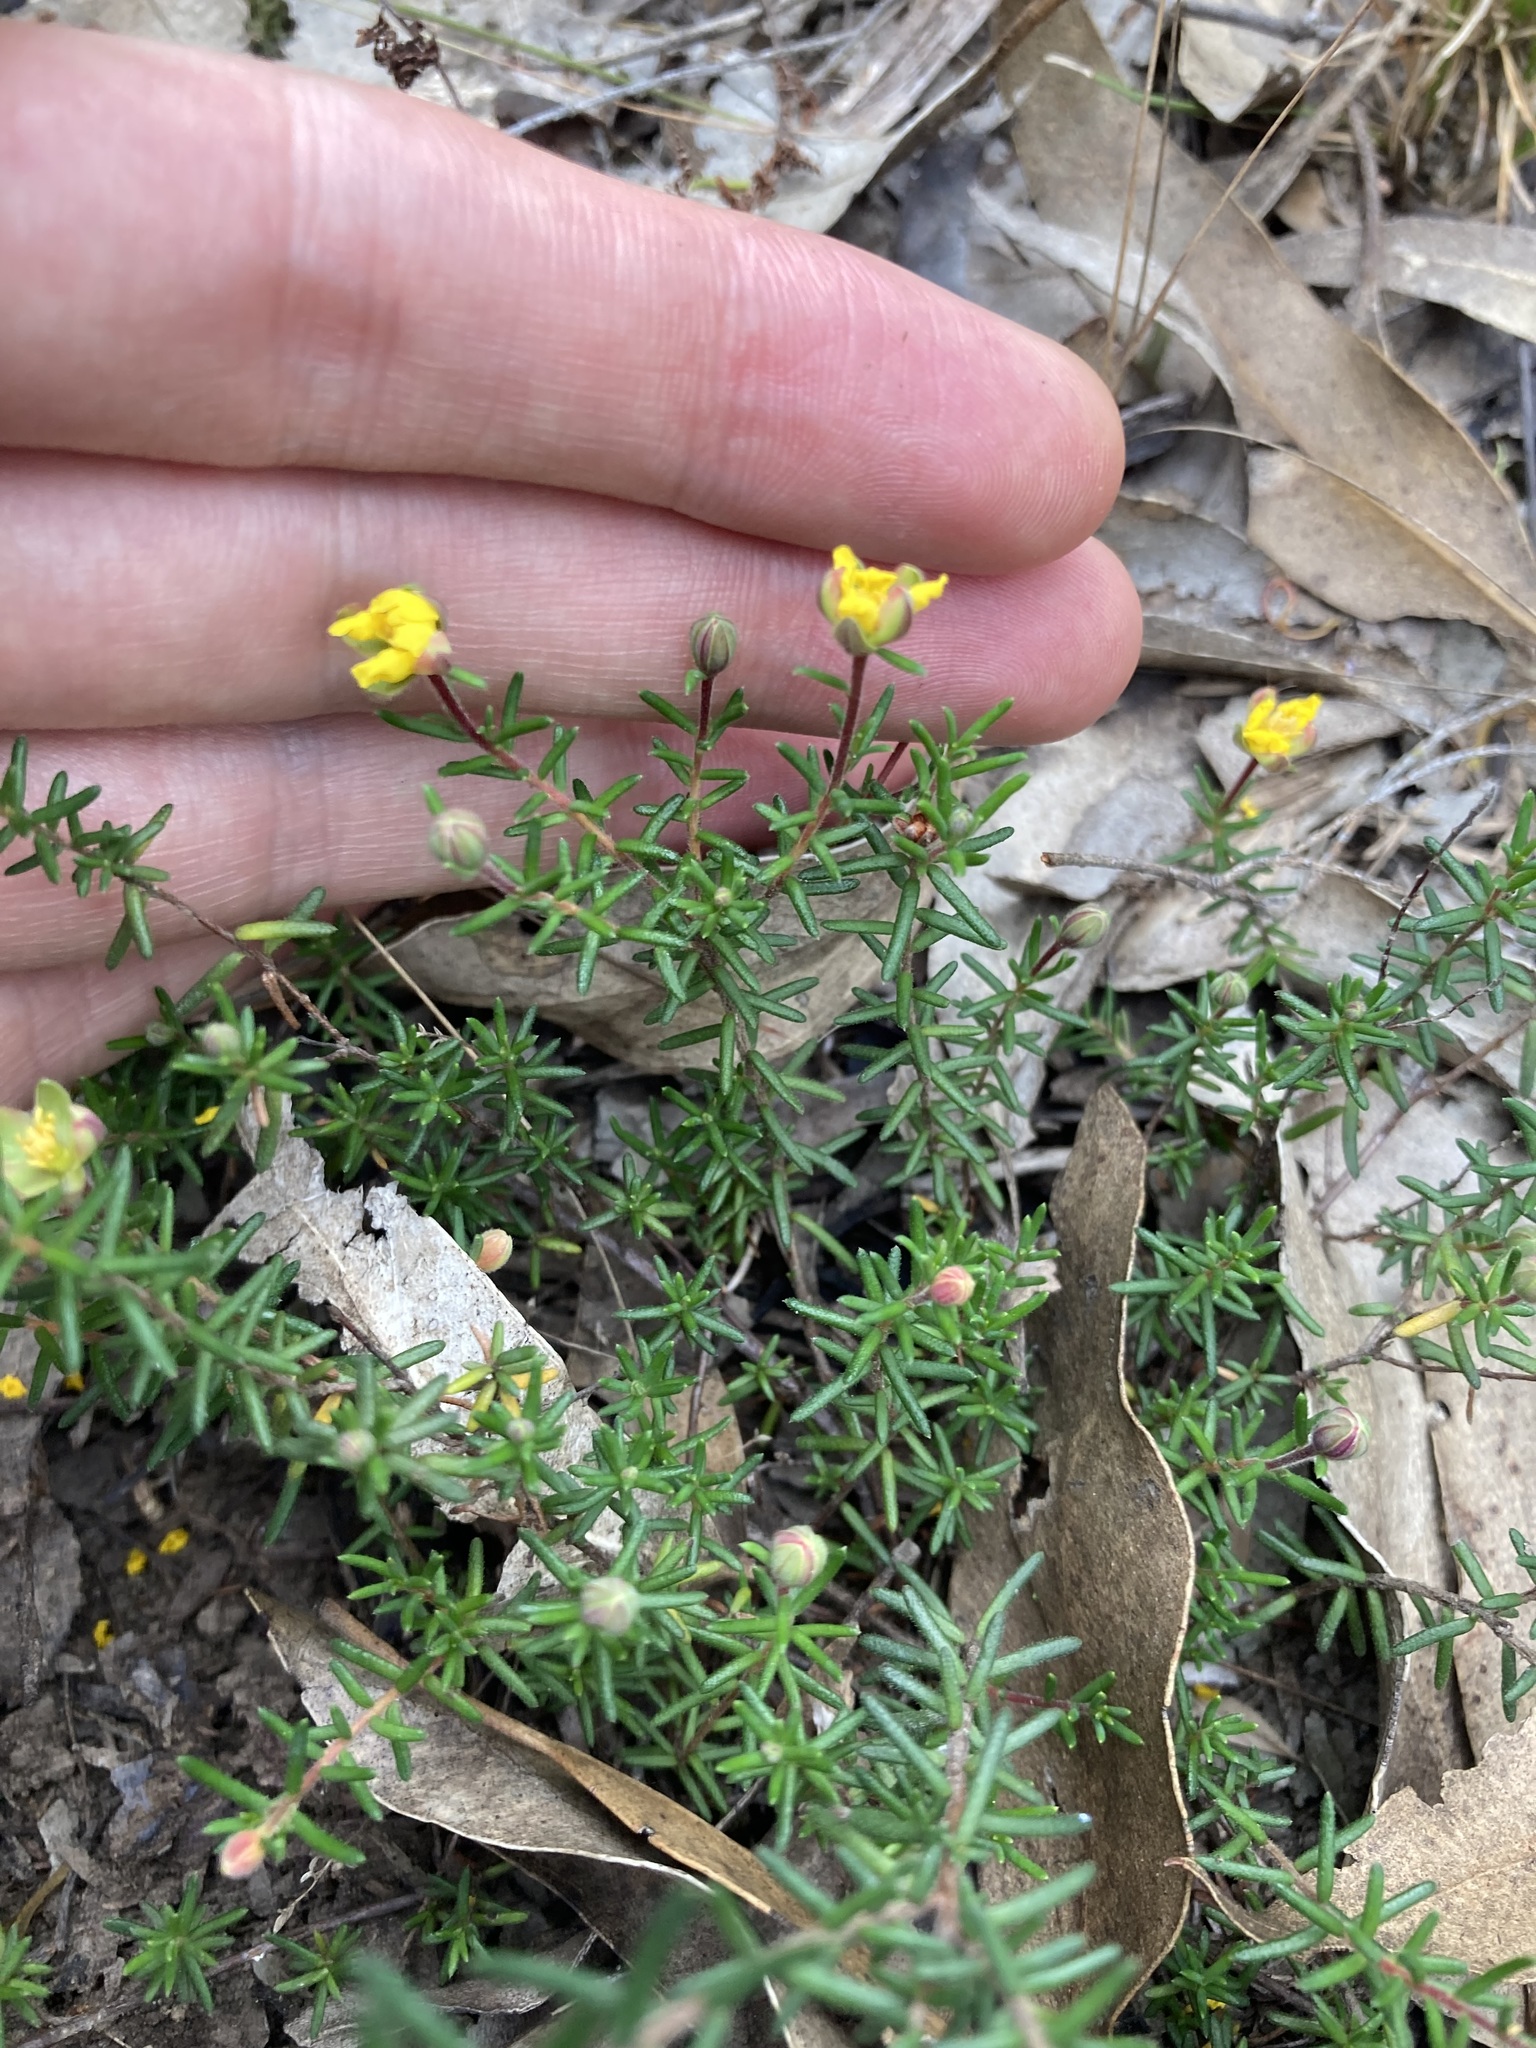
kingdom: Plantae
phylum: Tracheophyta
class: Magnoliopsida
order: Dilleniales
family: Dilleniaceae
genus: Hibbertia
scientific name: Hibbertia pedunculata
